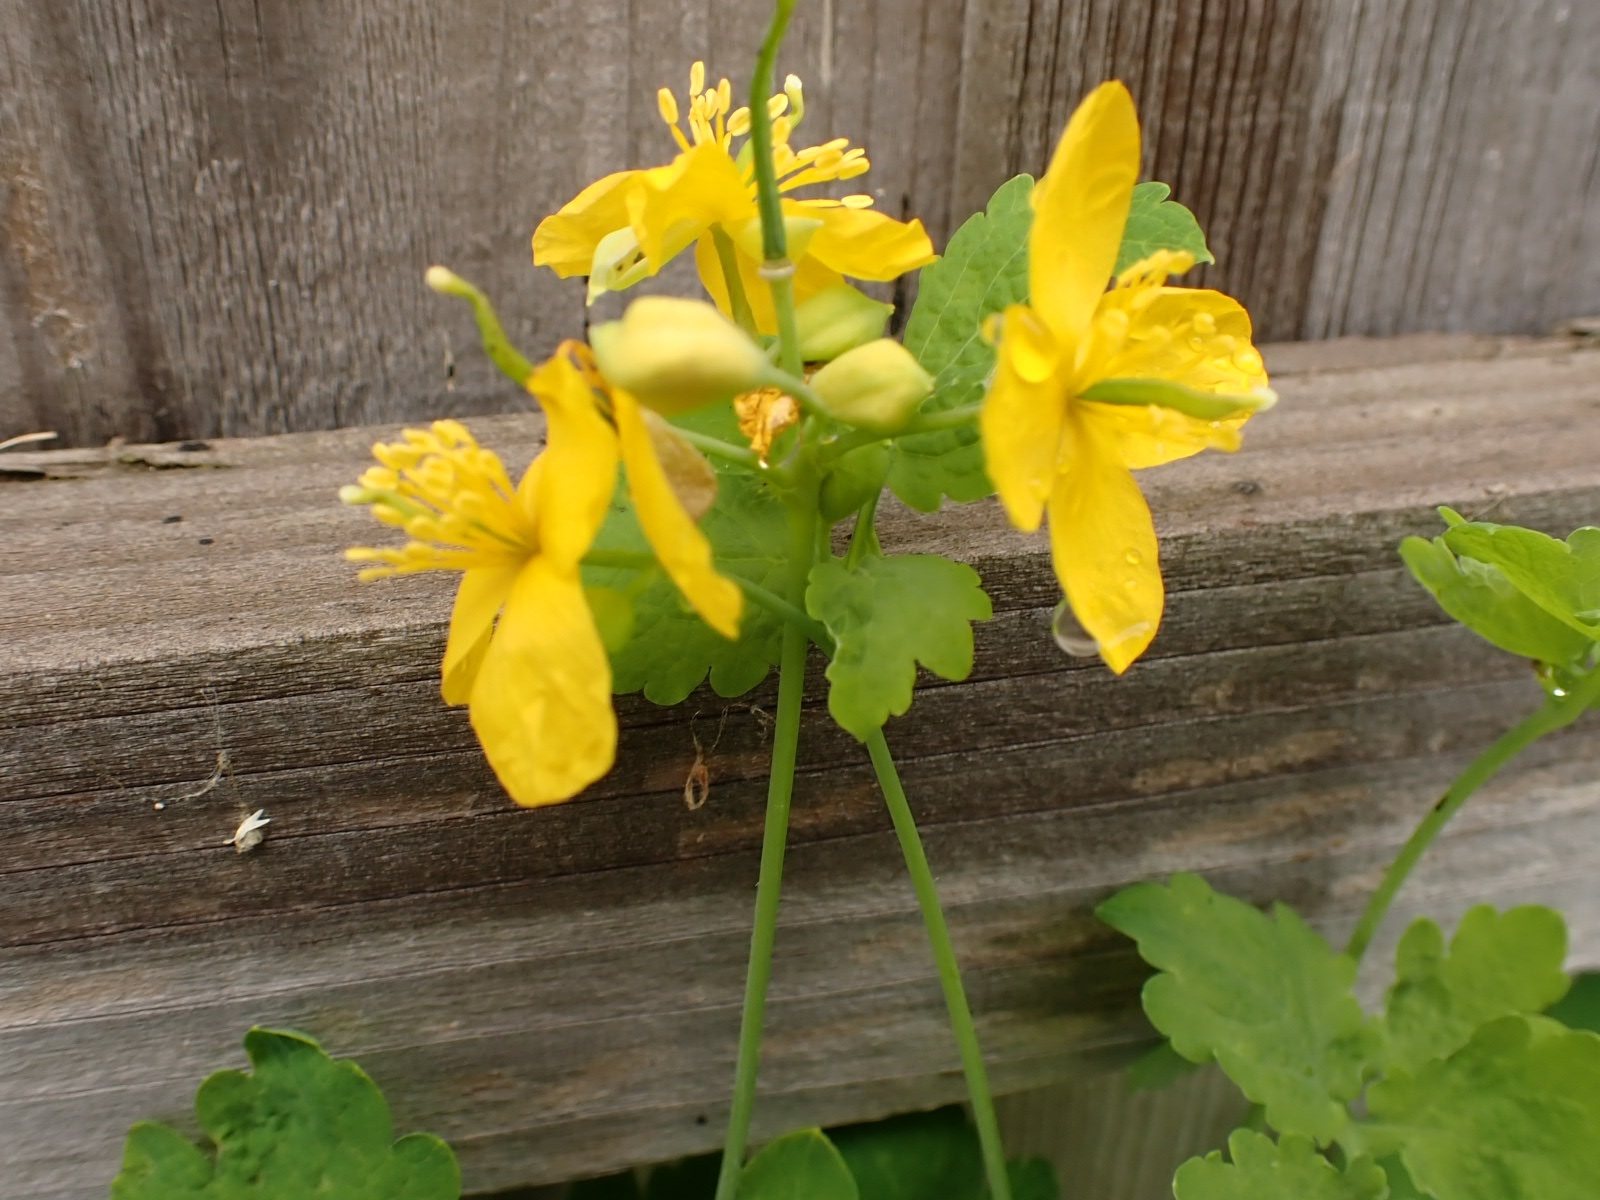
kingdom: Plantae
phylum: Tracheophyta
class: Magnoliopsida
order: Ranunculales
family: Papaveraceae
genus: Chelidonium
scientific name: Chelidonium majus
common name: Greater celandine
